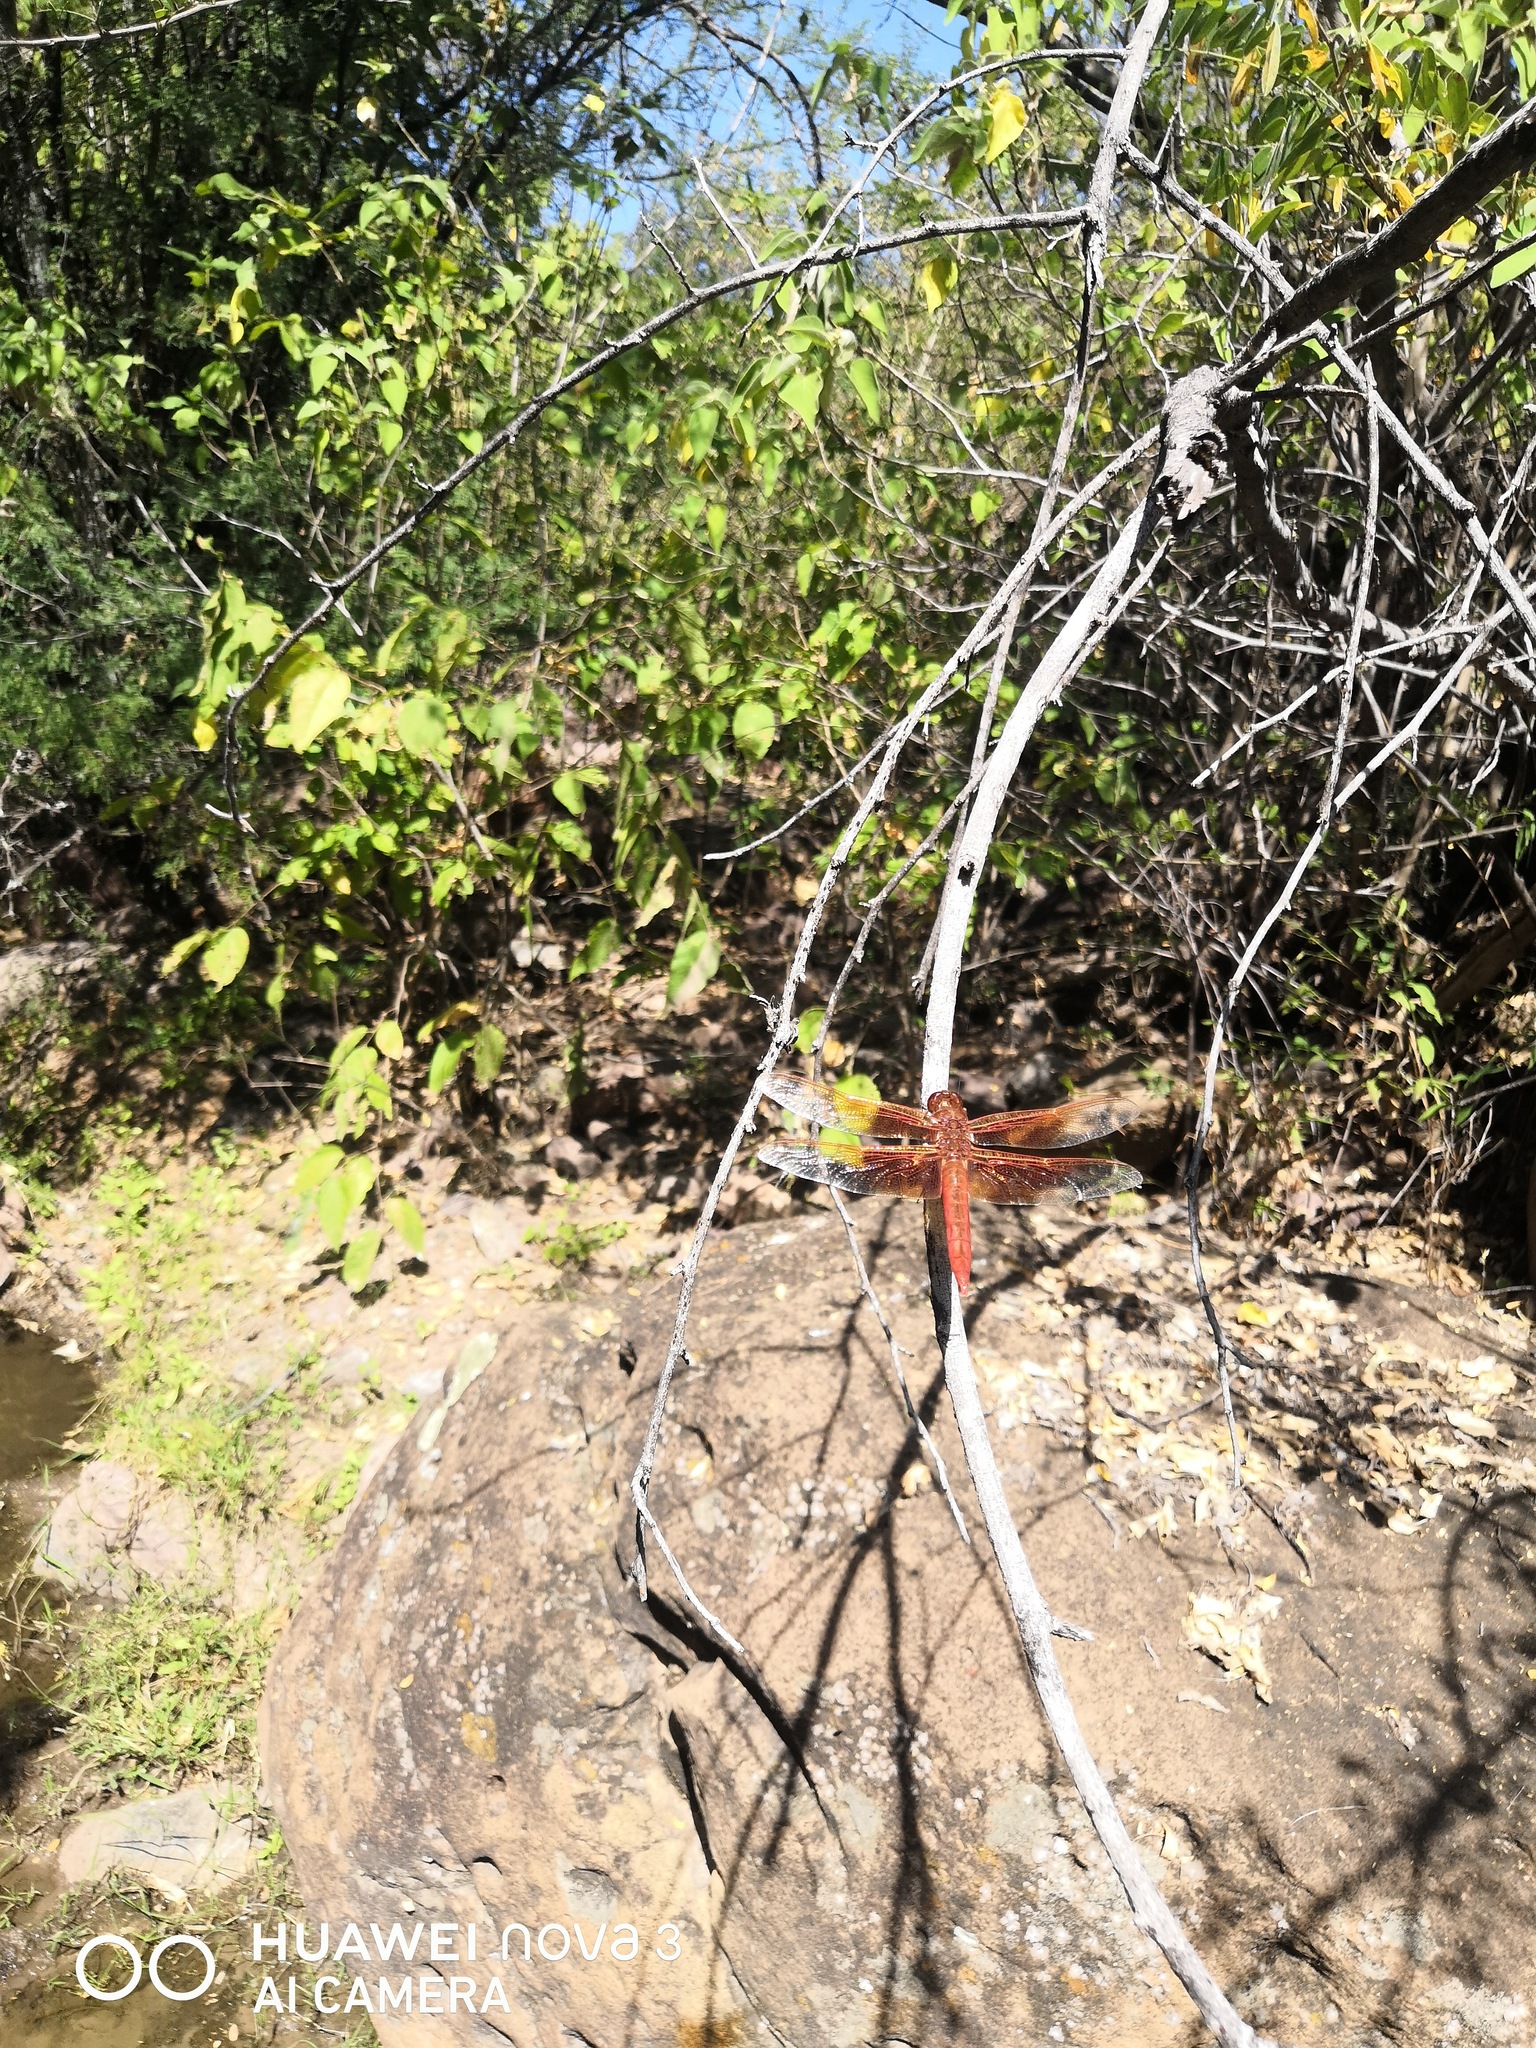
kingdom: Animalia
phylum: Arthropoda
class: Insecta
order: Odonata
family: Libellulidae
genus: Libellula
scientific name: Libellula saturata
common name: Flame skimmer
